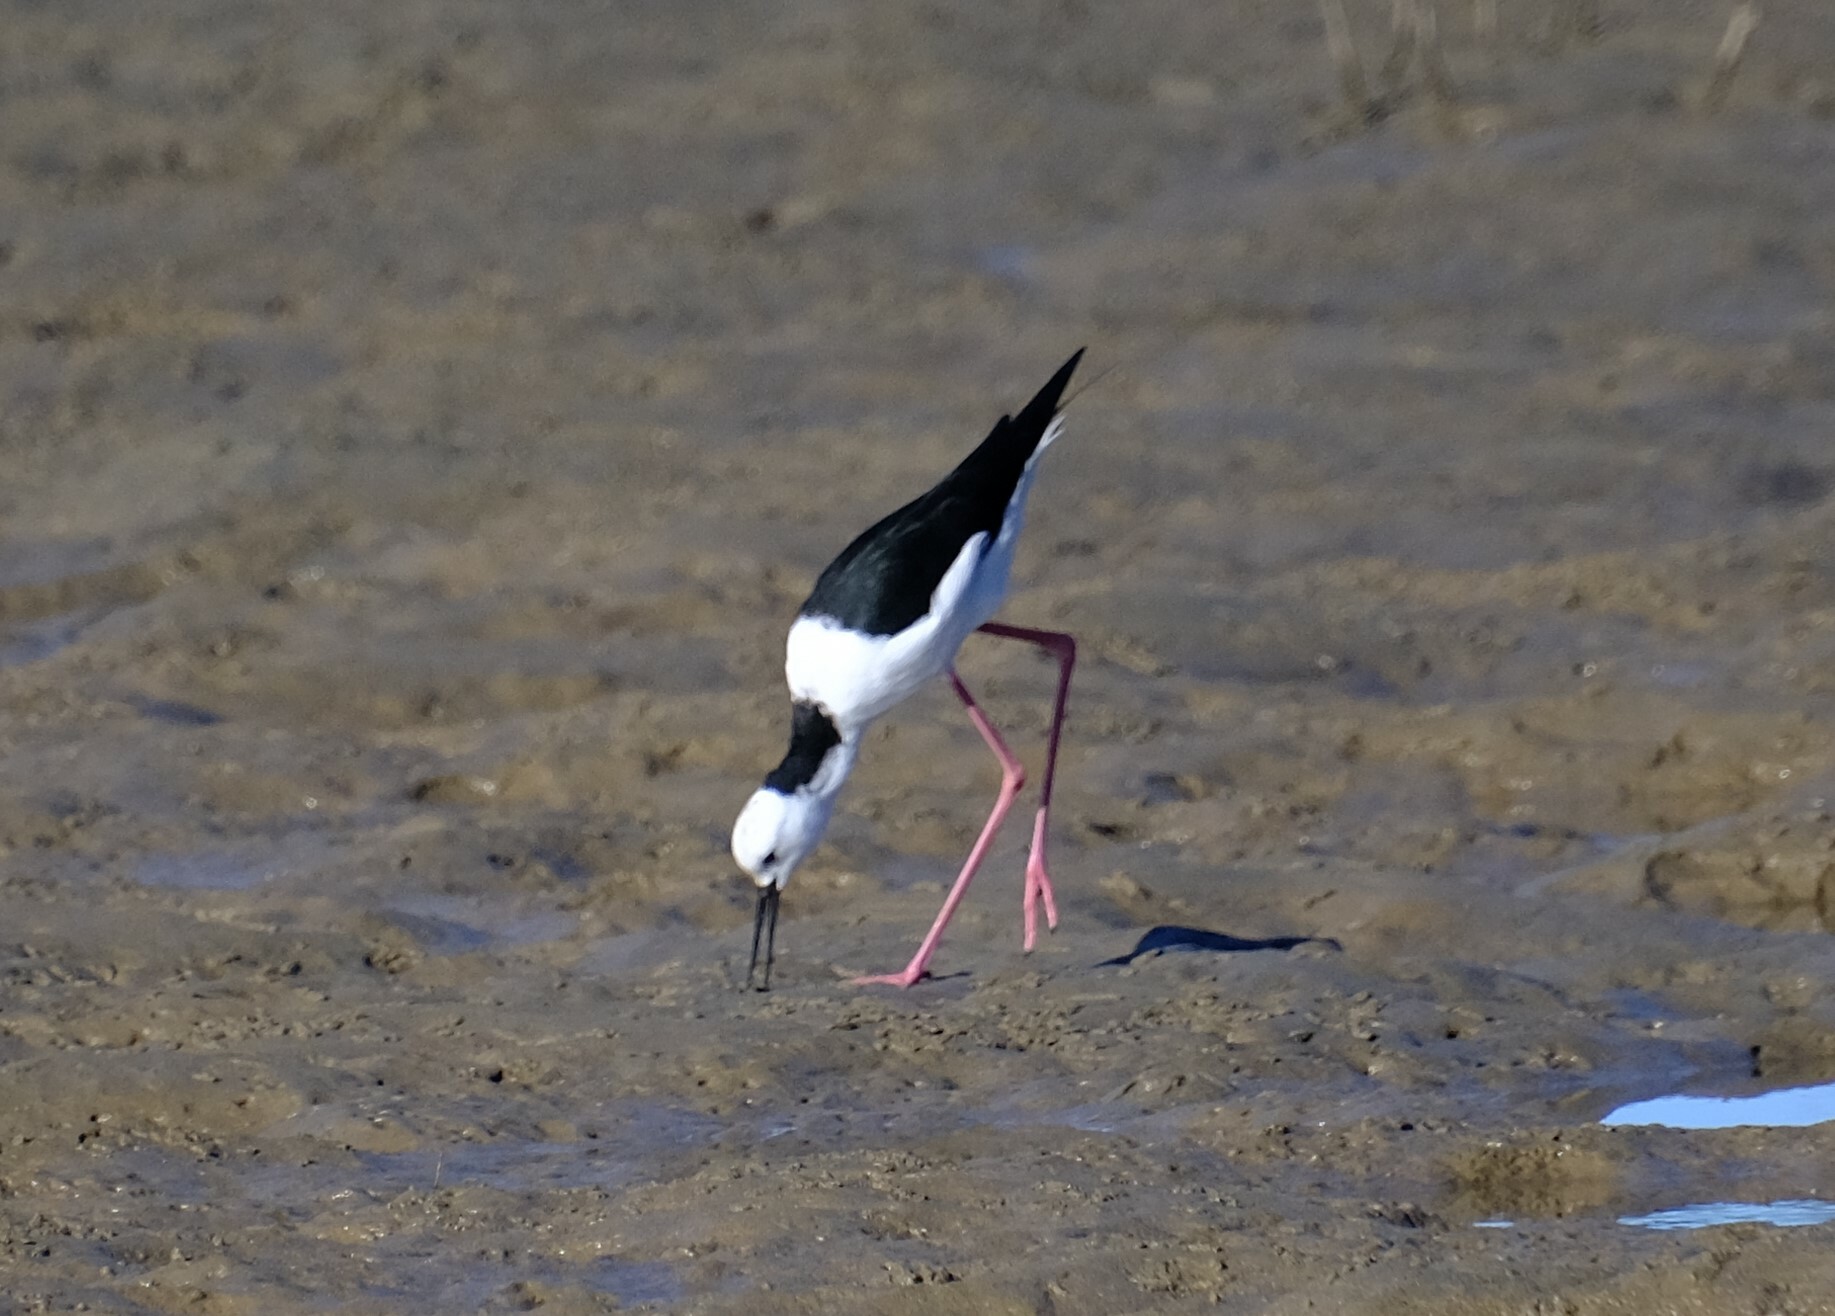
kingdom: Animalia
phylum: Chordata
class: Aves
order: Charadriiformes
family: Recurvirostridae
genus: Himantopus
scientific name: Himantopus leucocephalus
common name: White-headed stilt
